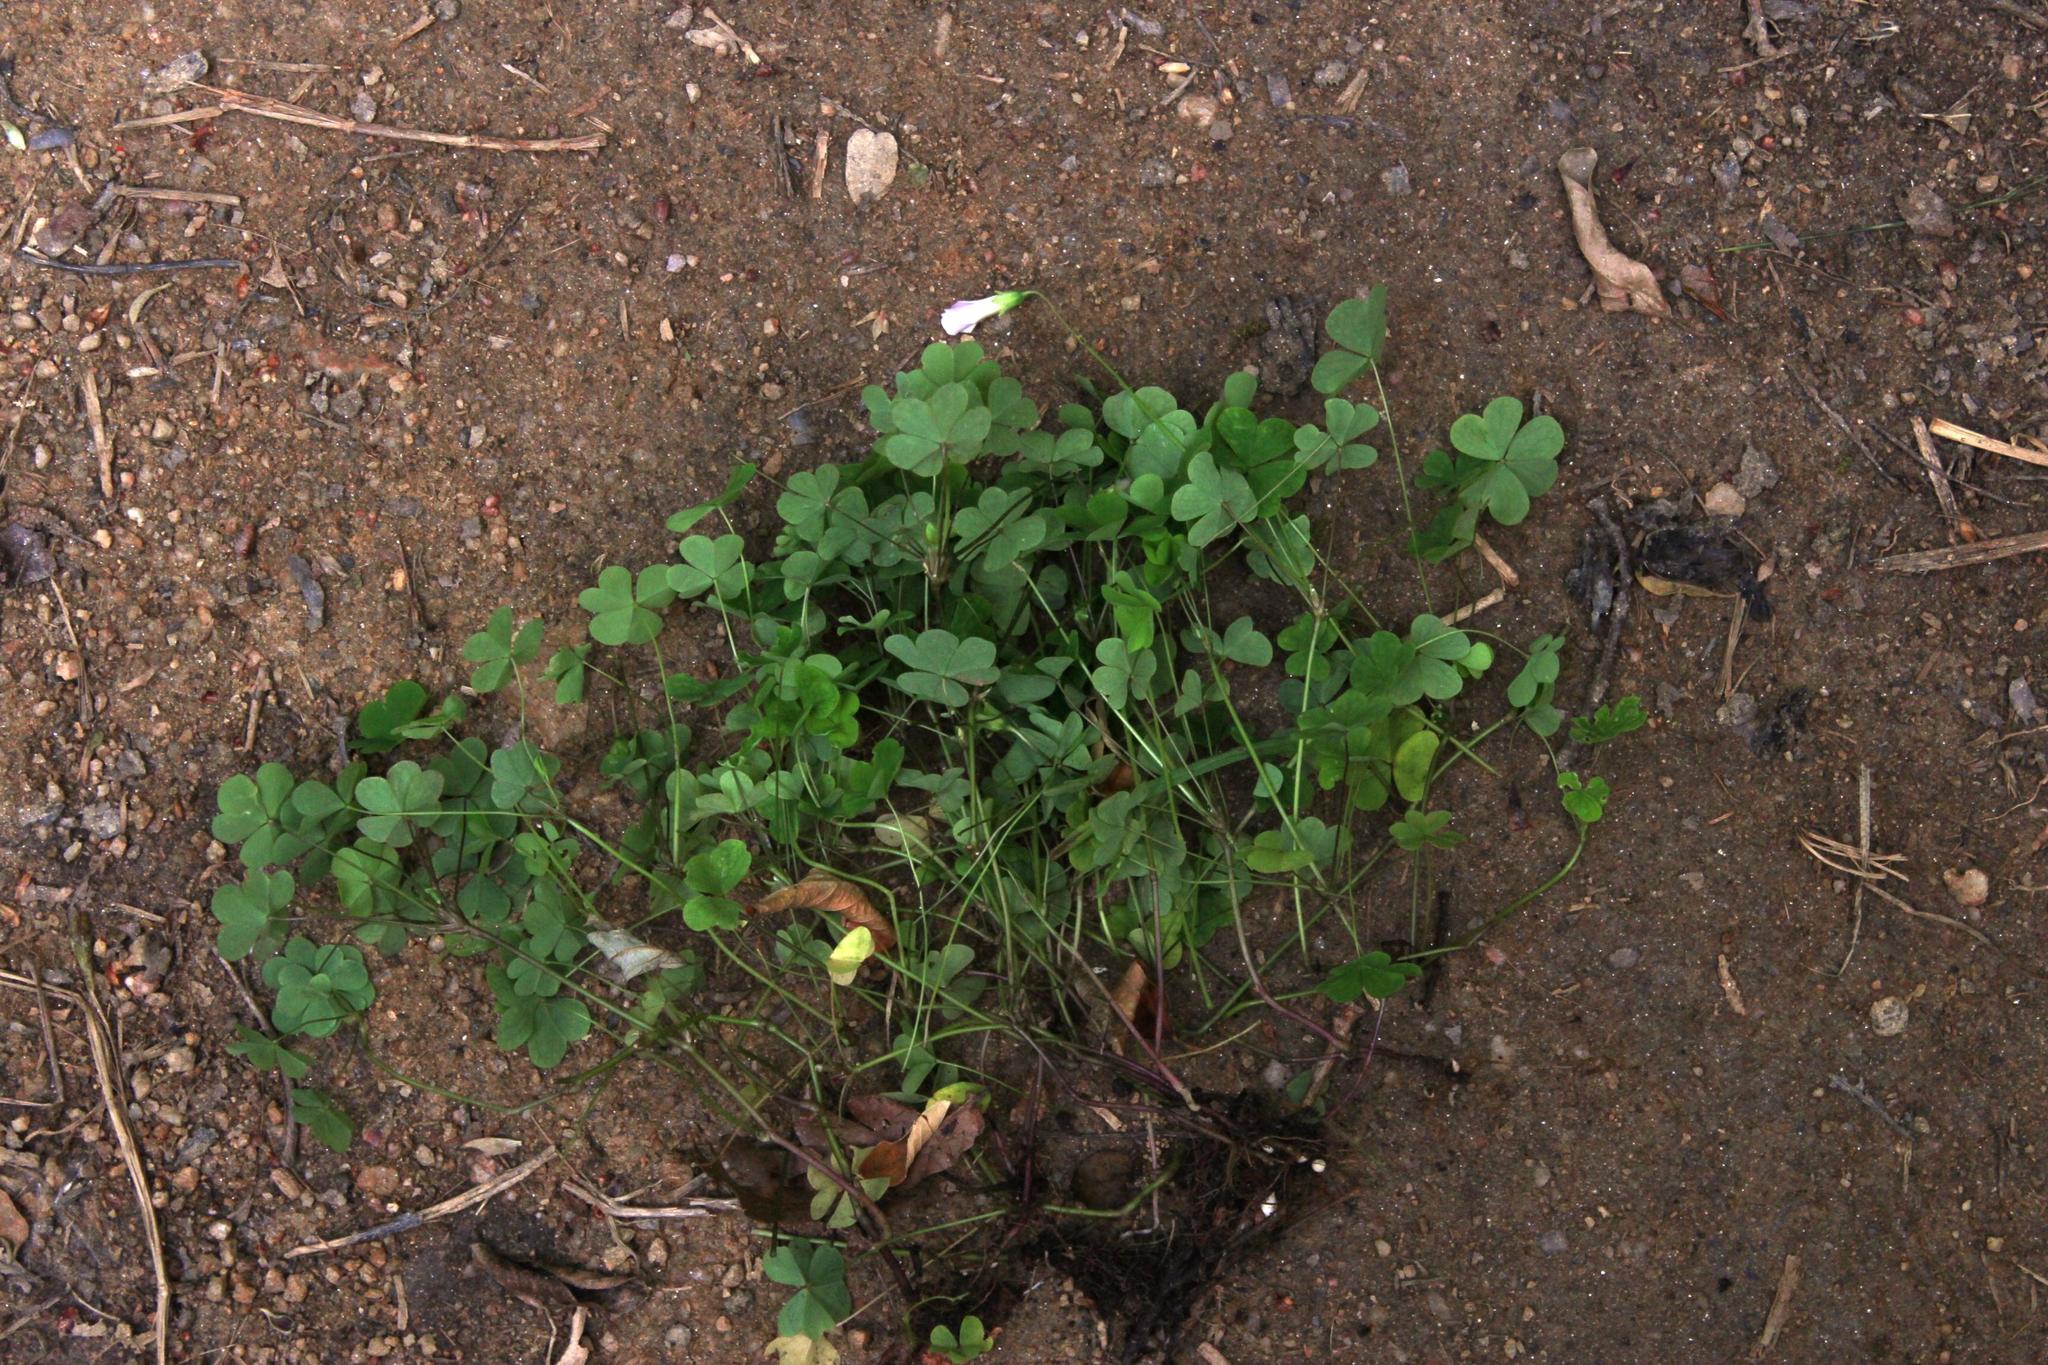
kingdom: Plantae
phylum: Tracheophyta
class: Magnoliopsida
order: Oxalidales
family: Oxalidaceae
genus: Oxalis
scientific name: Oxalis incarnata
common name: Pale pink-sorrel
